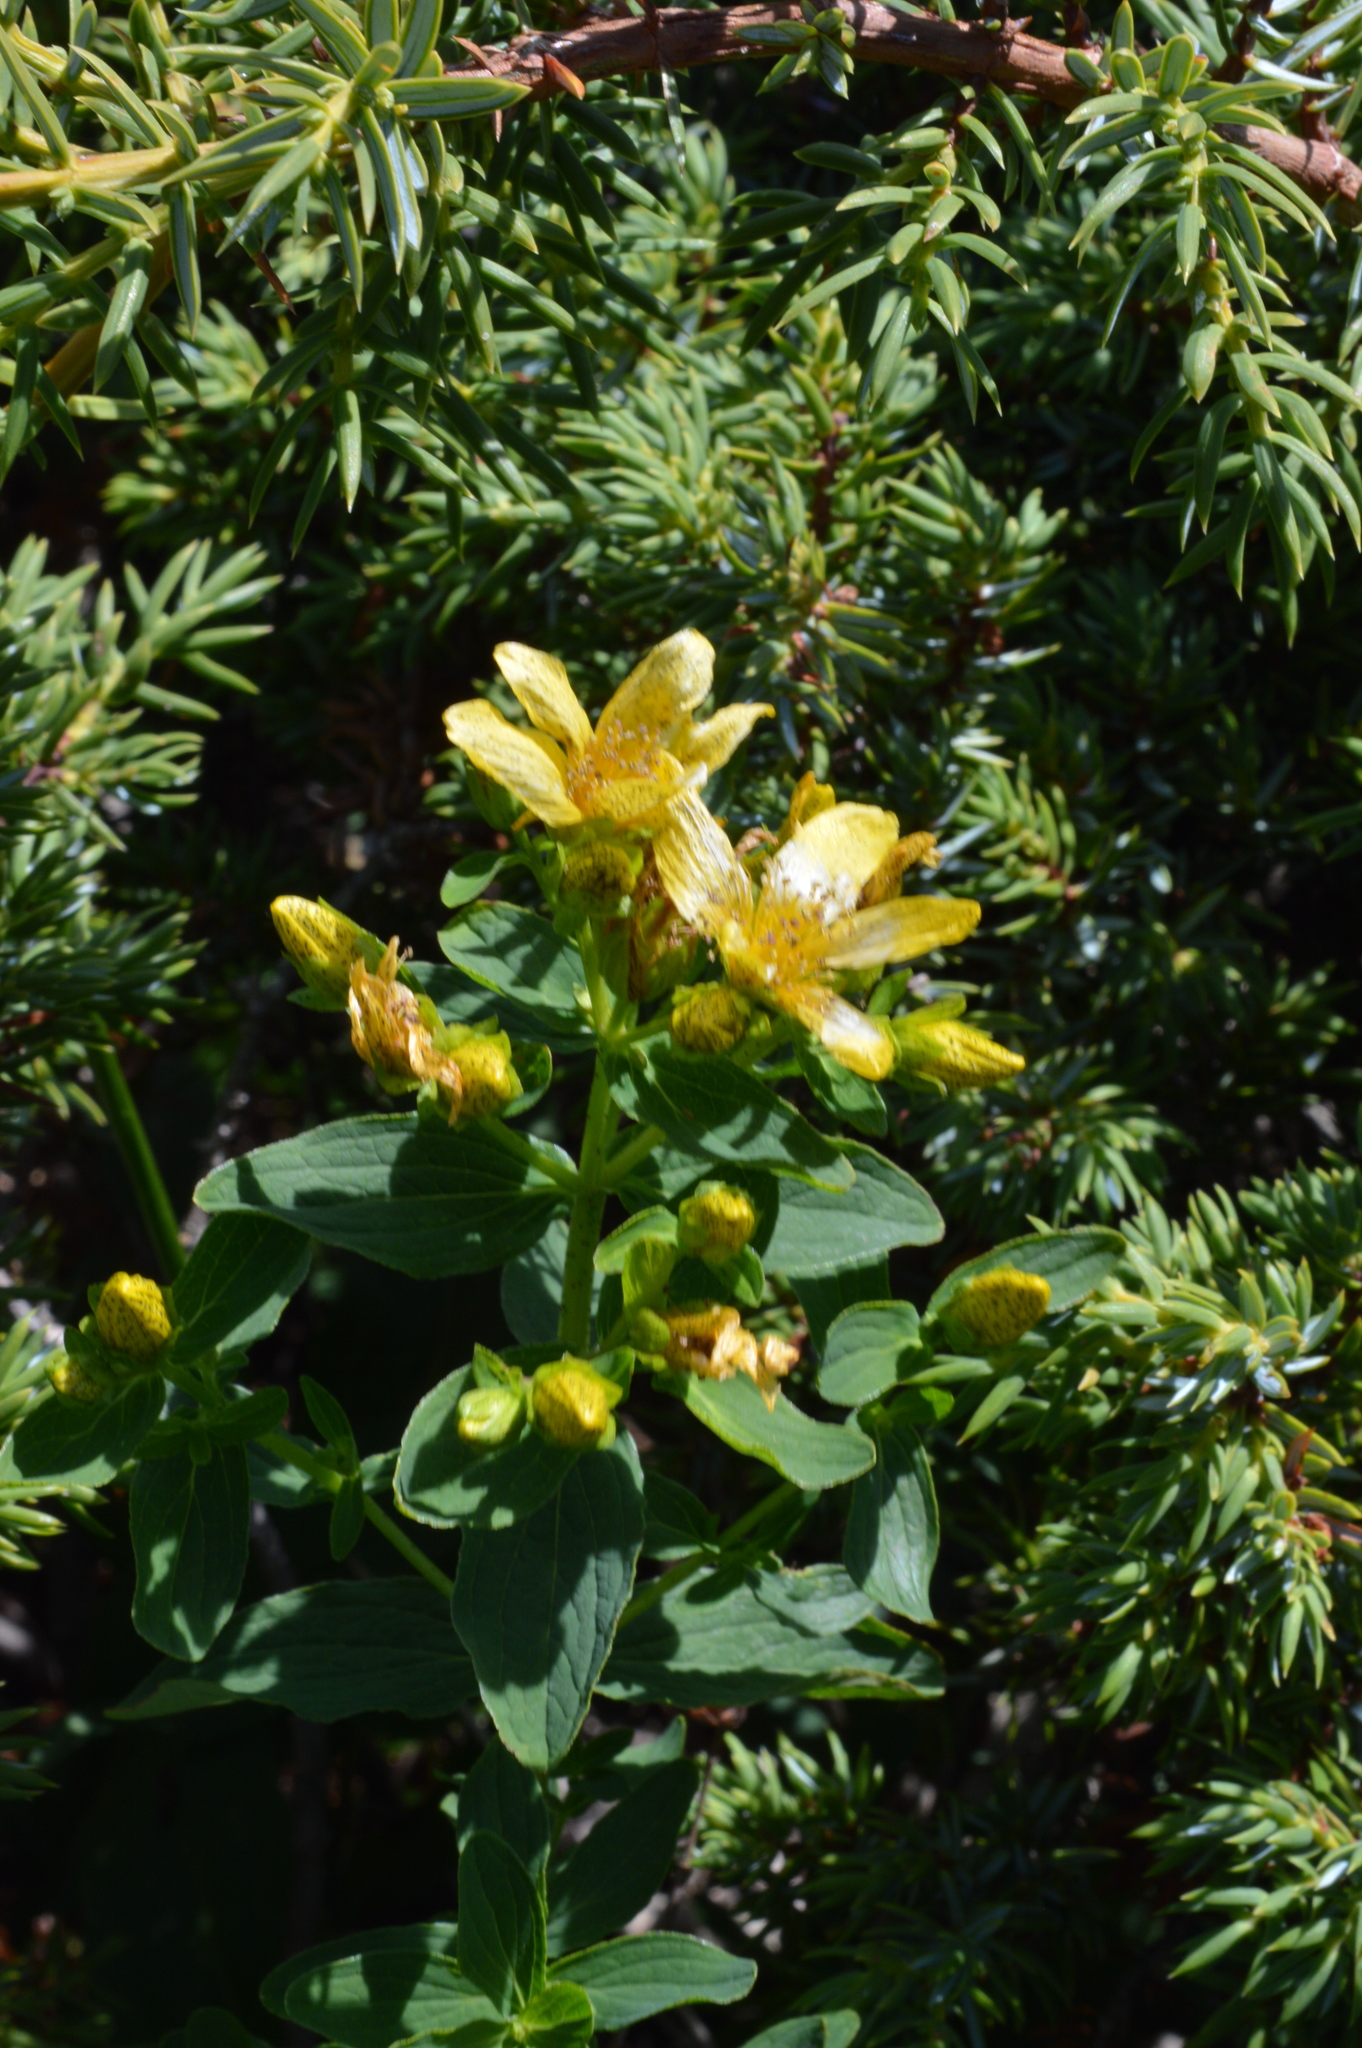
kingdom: Plantae
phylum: Tracheophyta
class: Magnoliopsida
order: Malpighiales
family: Hypericaceae
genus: Hypericum
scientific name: Hypericum maculatum
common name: Imperforate st. john's-wort
